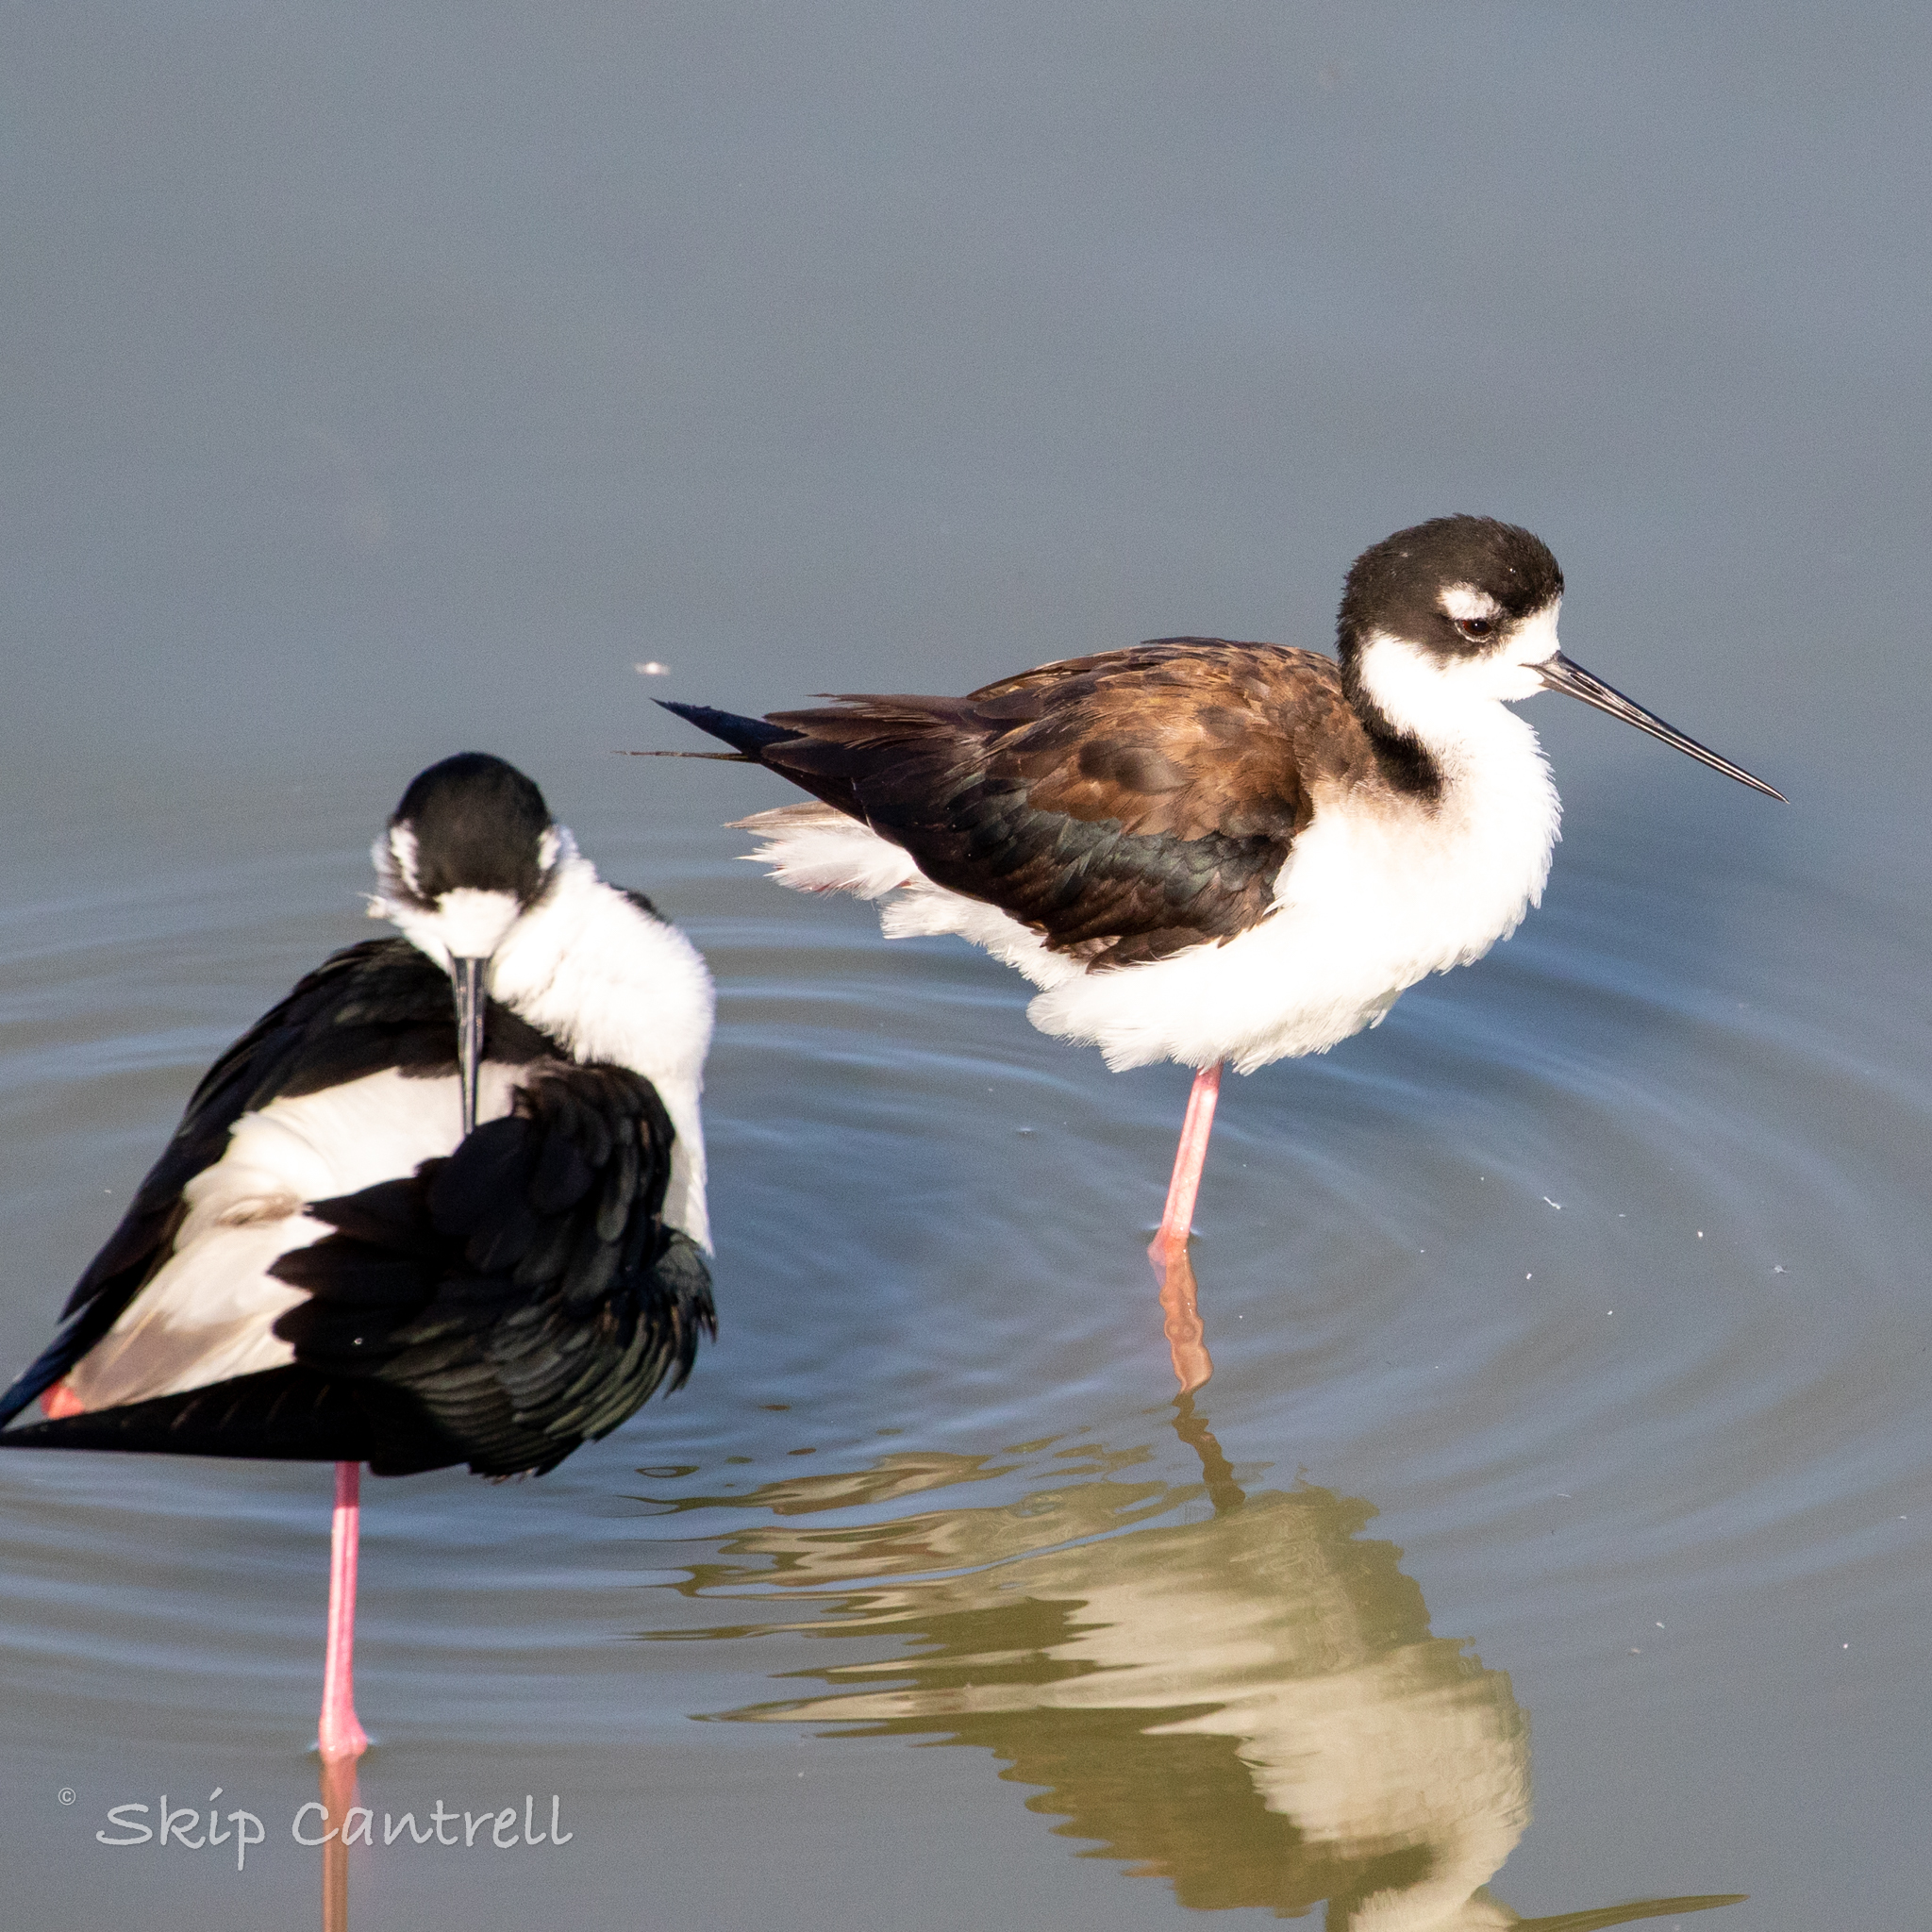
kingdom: Animalia
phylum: Chordata
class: Aves
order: Charadriiformes
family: Recurvirostridae
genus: Himantopus
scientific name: Himantopus mexicanus
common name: Black-necked stilt
